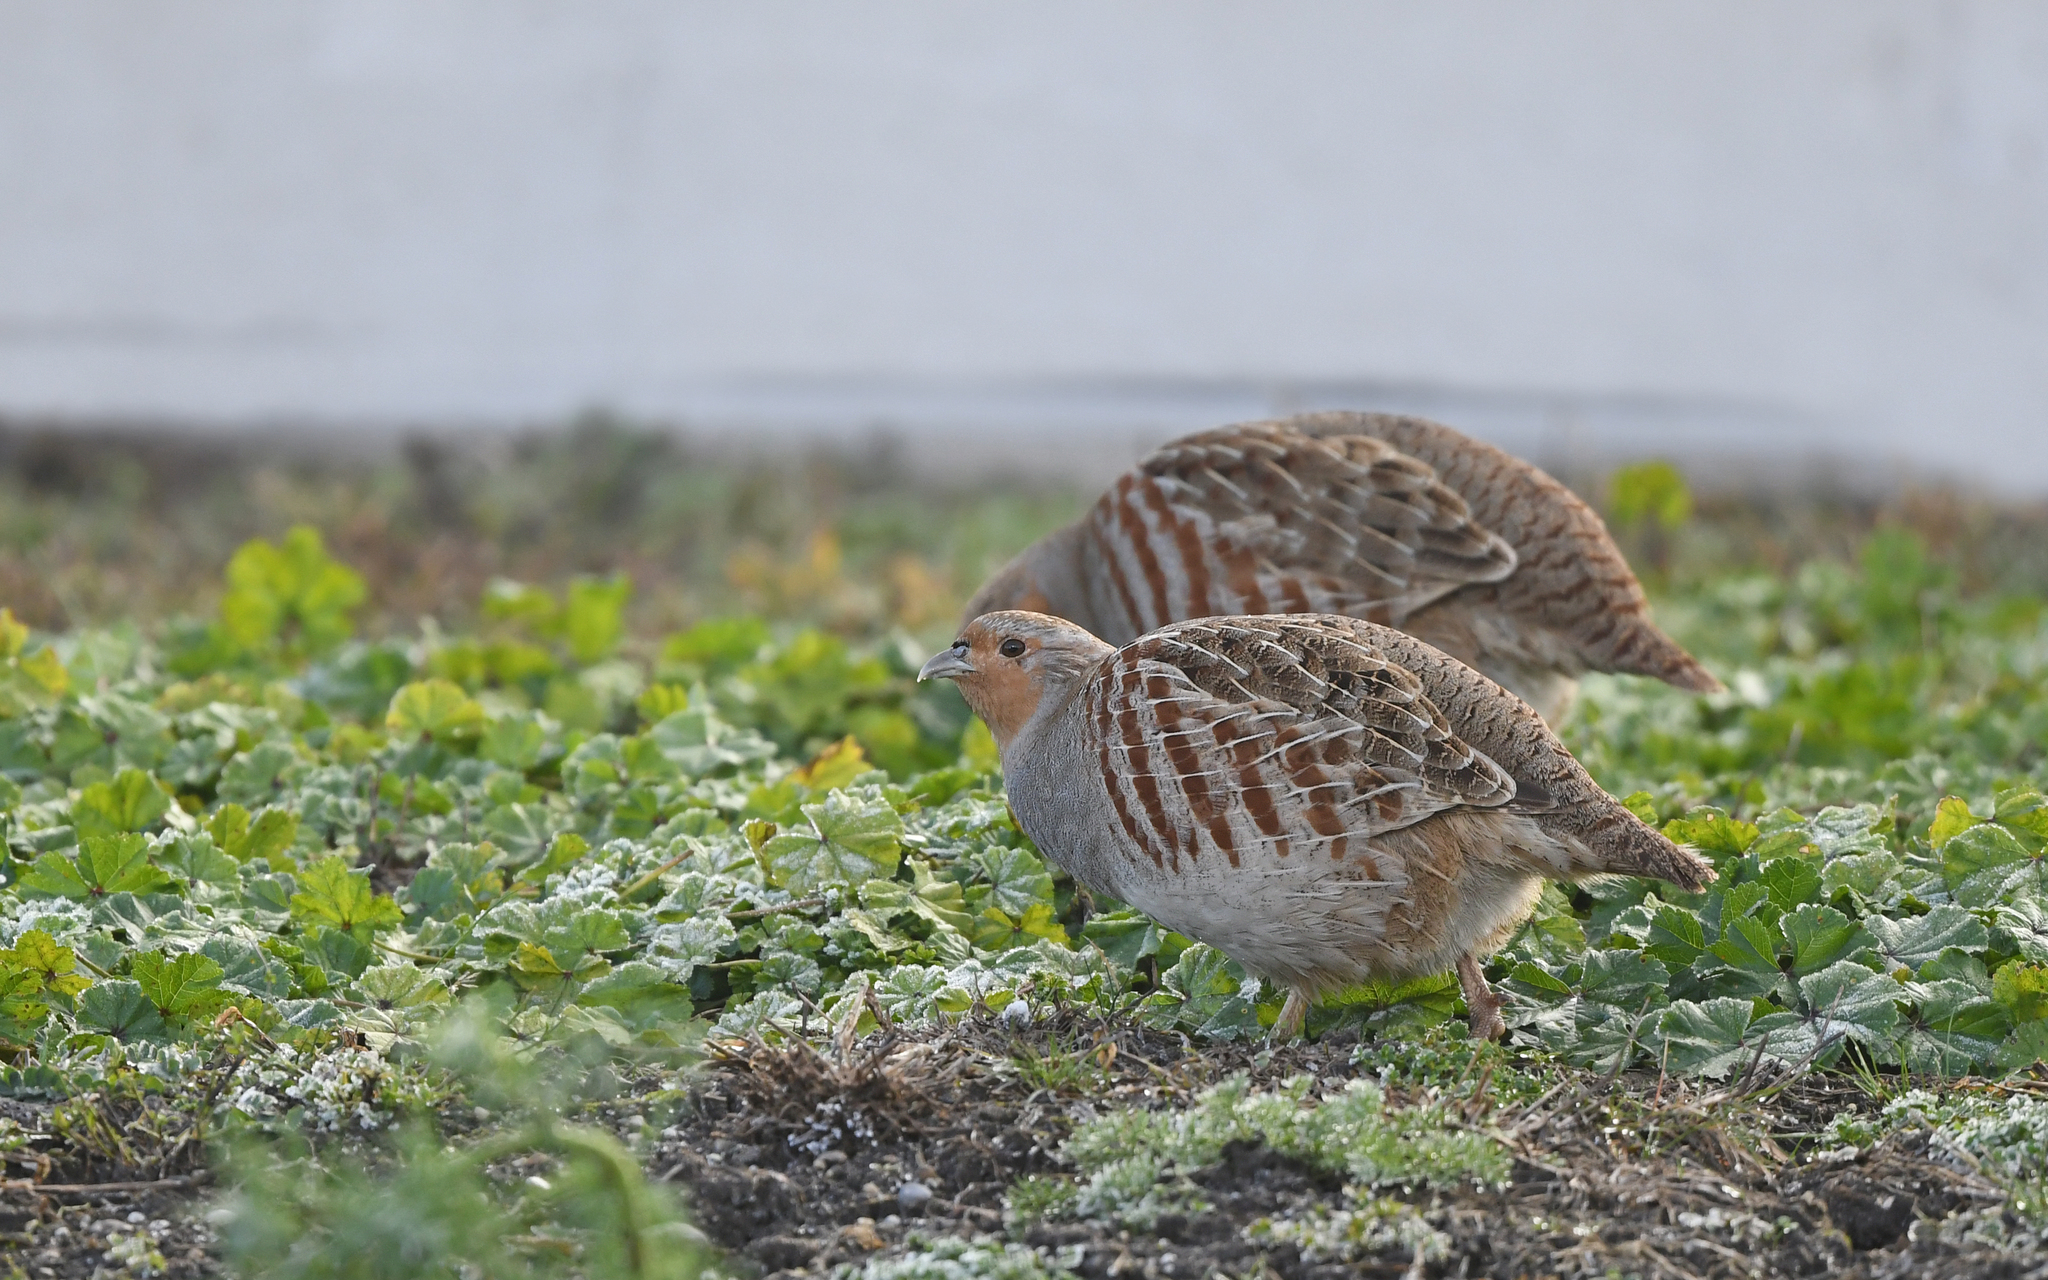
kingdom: Animalia
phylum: Chordata
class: Aves
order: Galliformes
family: Phasianidae
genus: Perdix
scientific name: Perdix perdix
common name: Grey partridge
